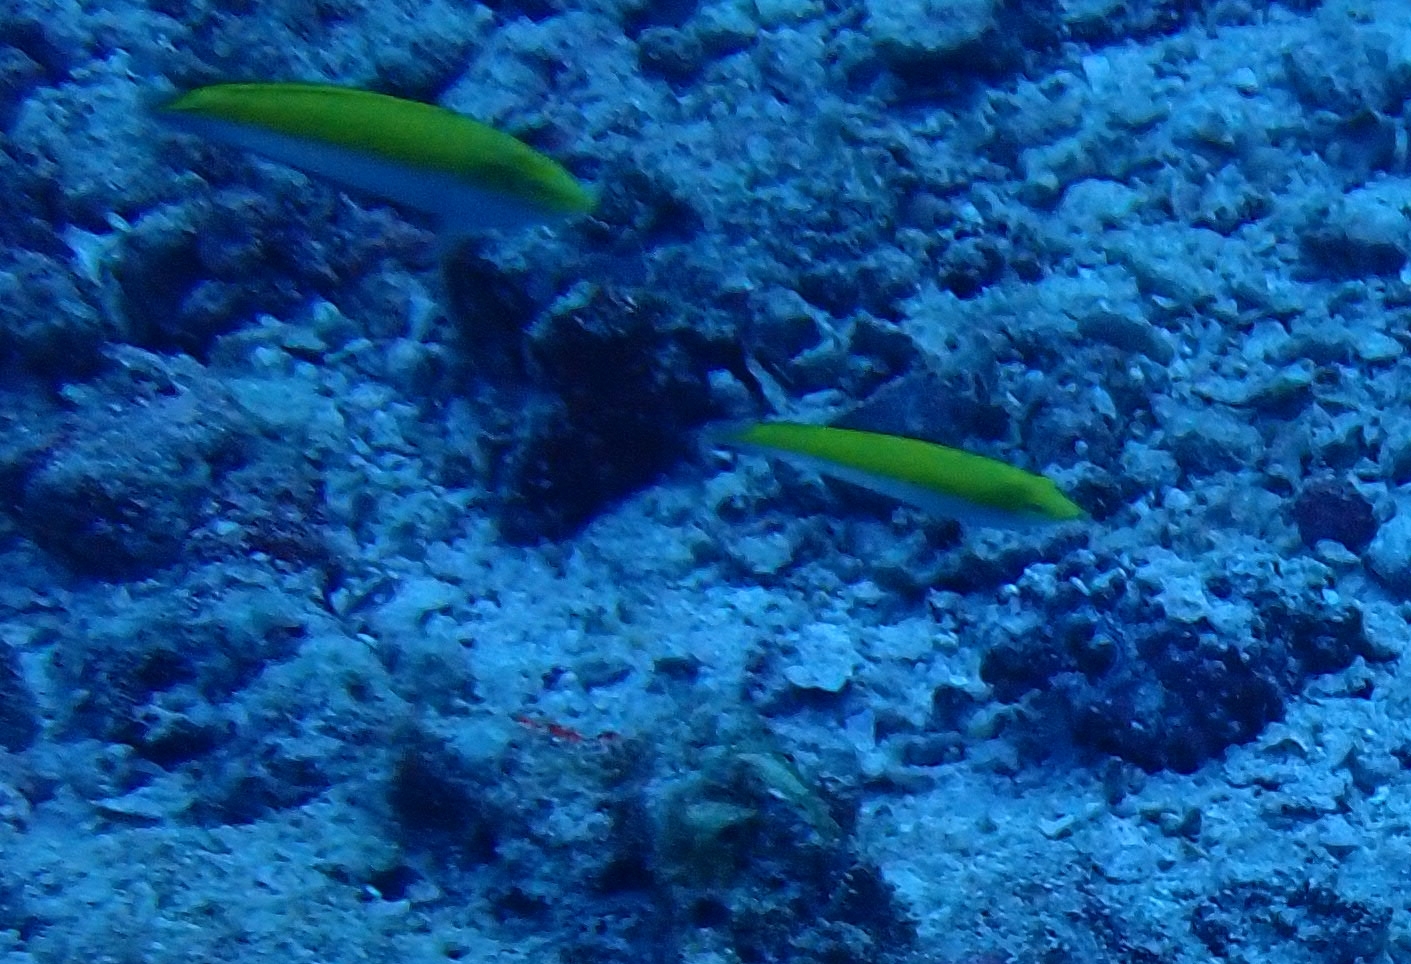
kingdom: Animalia
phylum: Chordata
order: Perciformes
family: Labridae
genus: Halichoeres
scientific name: Halichoeres leucoxanthus
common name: Canarytop wrasse
